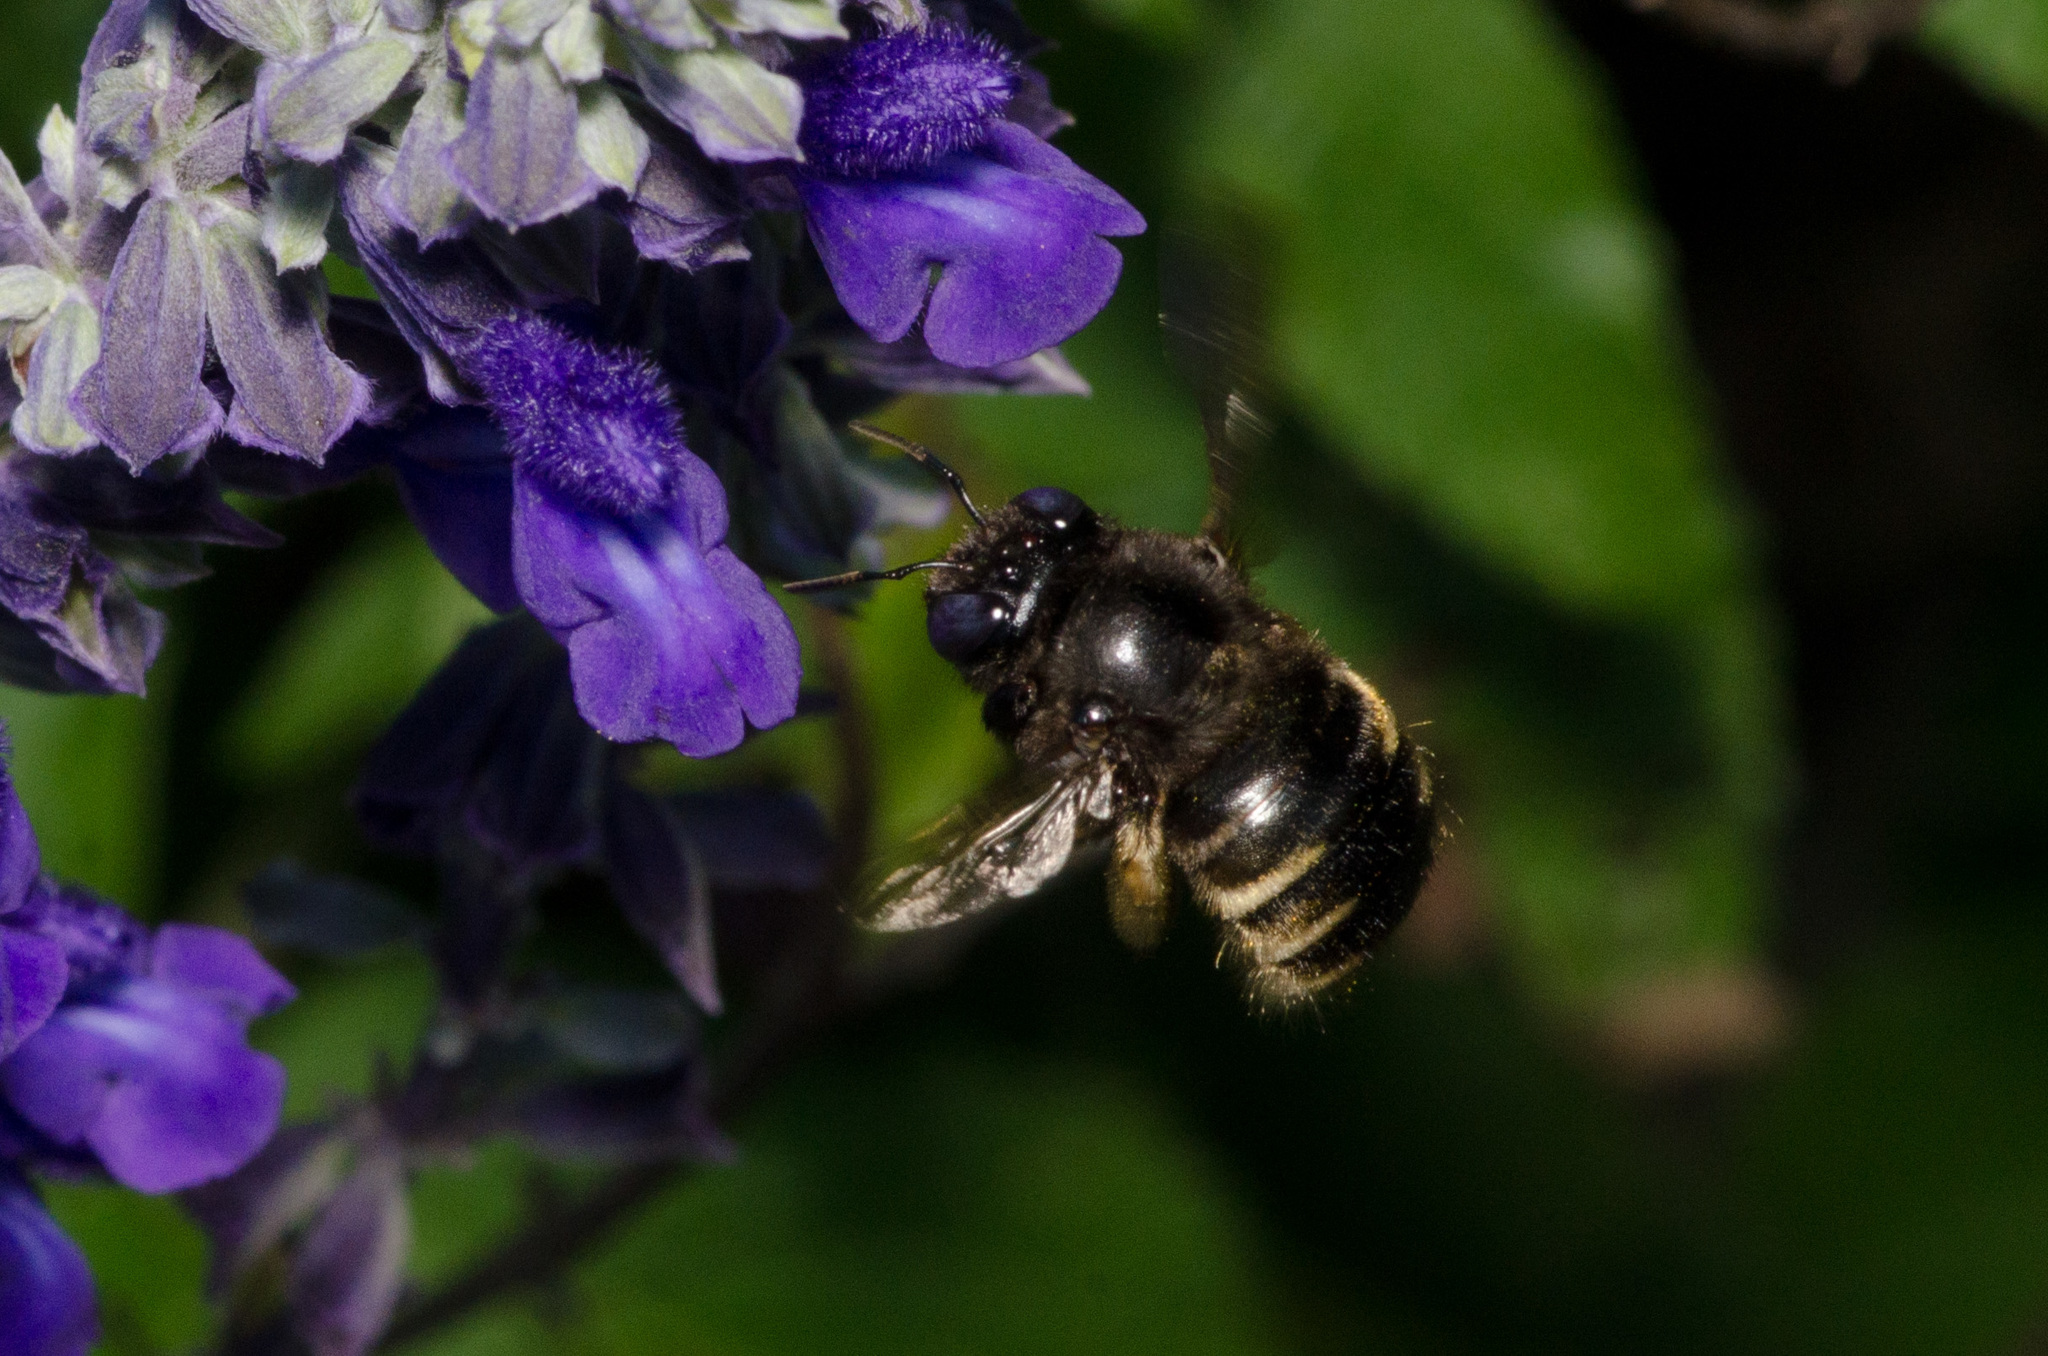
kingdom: Animalia
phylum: Arthropoda
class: Insecta
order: Hymenoptera
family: Apidae
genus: Xylocopa
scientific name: Xylocopa tabaniformis
